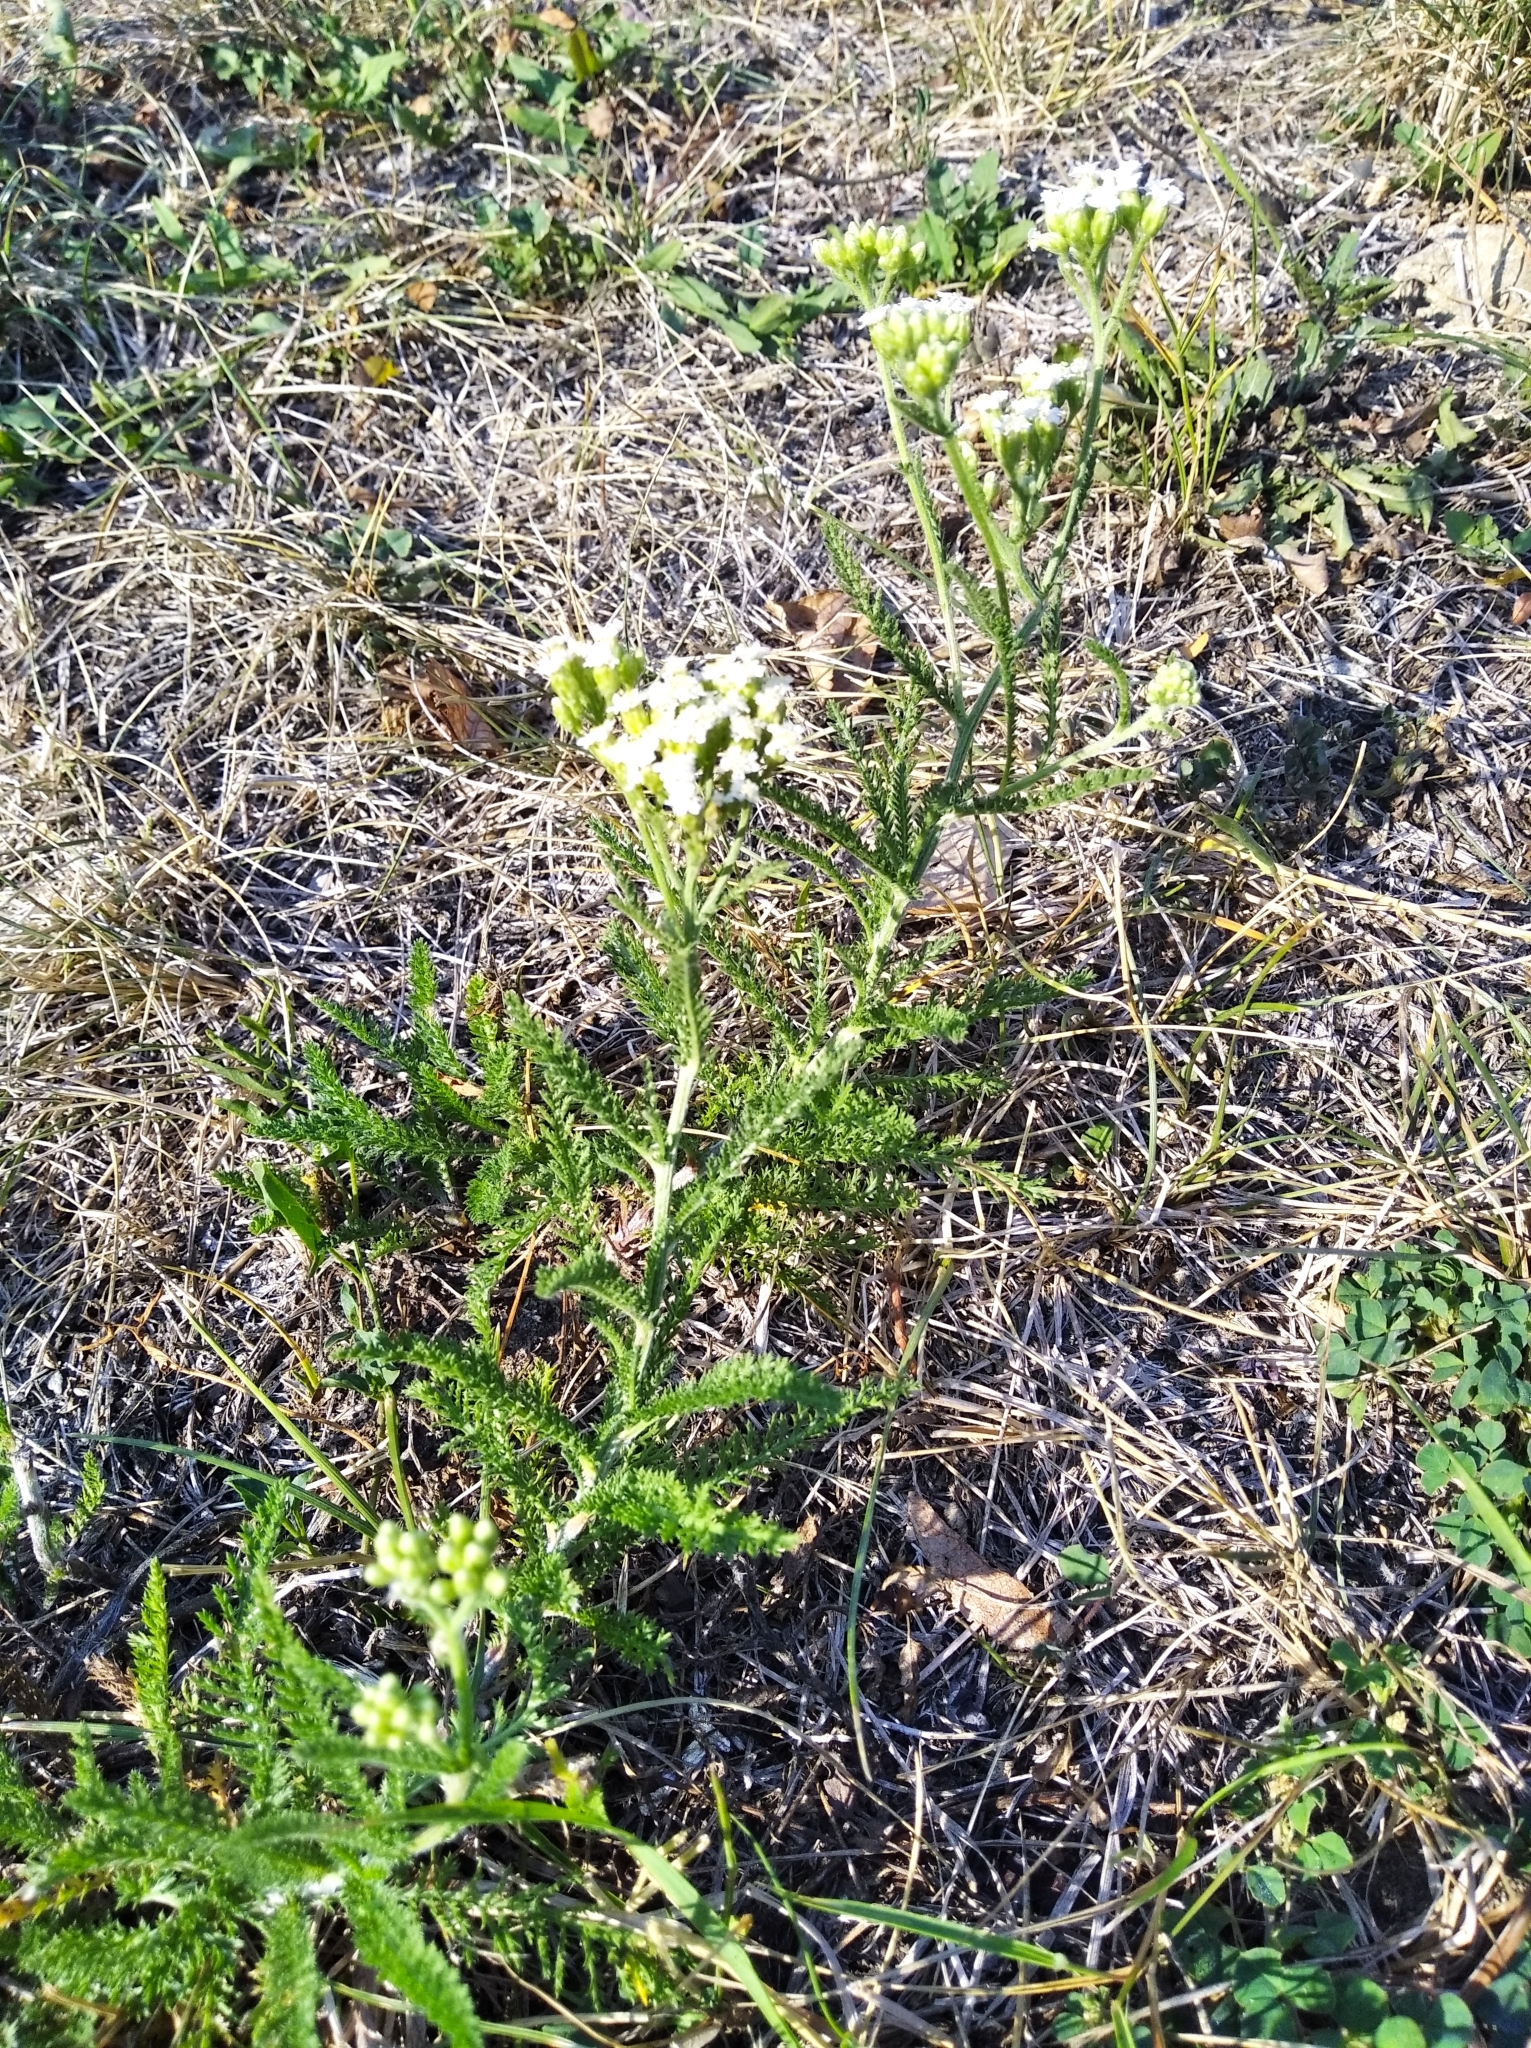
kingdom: Plantae
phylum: Tracheophyta
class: Magnoliopsida
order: Asterales
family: Asteraceae
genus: Achillea
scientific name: Achillea millefolium
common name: Yarrow
